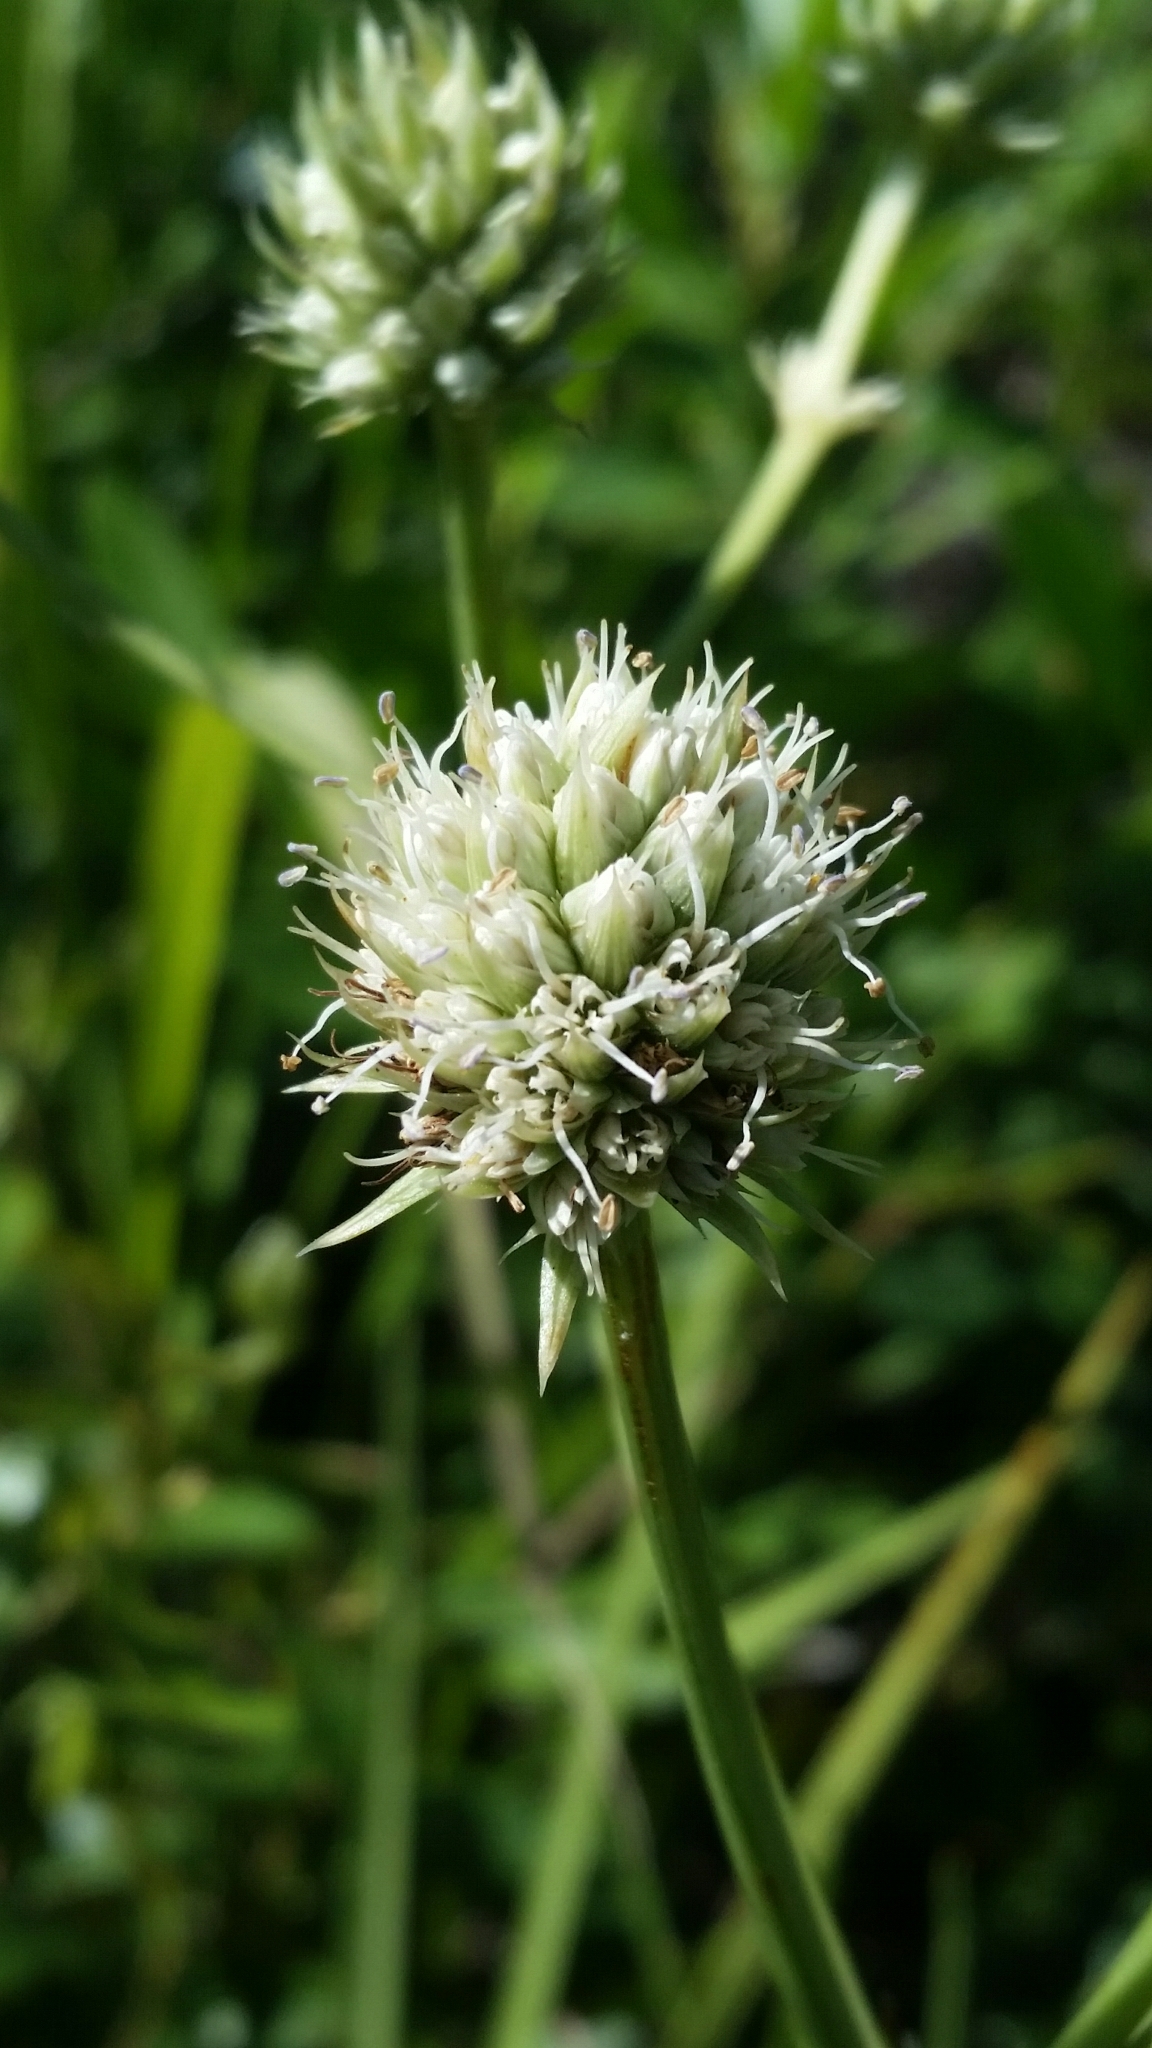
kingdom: Plantae
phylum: Tracheophyta
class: Magnoliopsida
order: Apiales
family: Apiaceae
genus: Eryngium
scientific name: Eryngium yuccifolium
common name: Button eryngo
